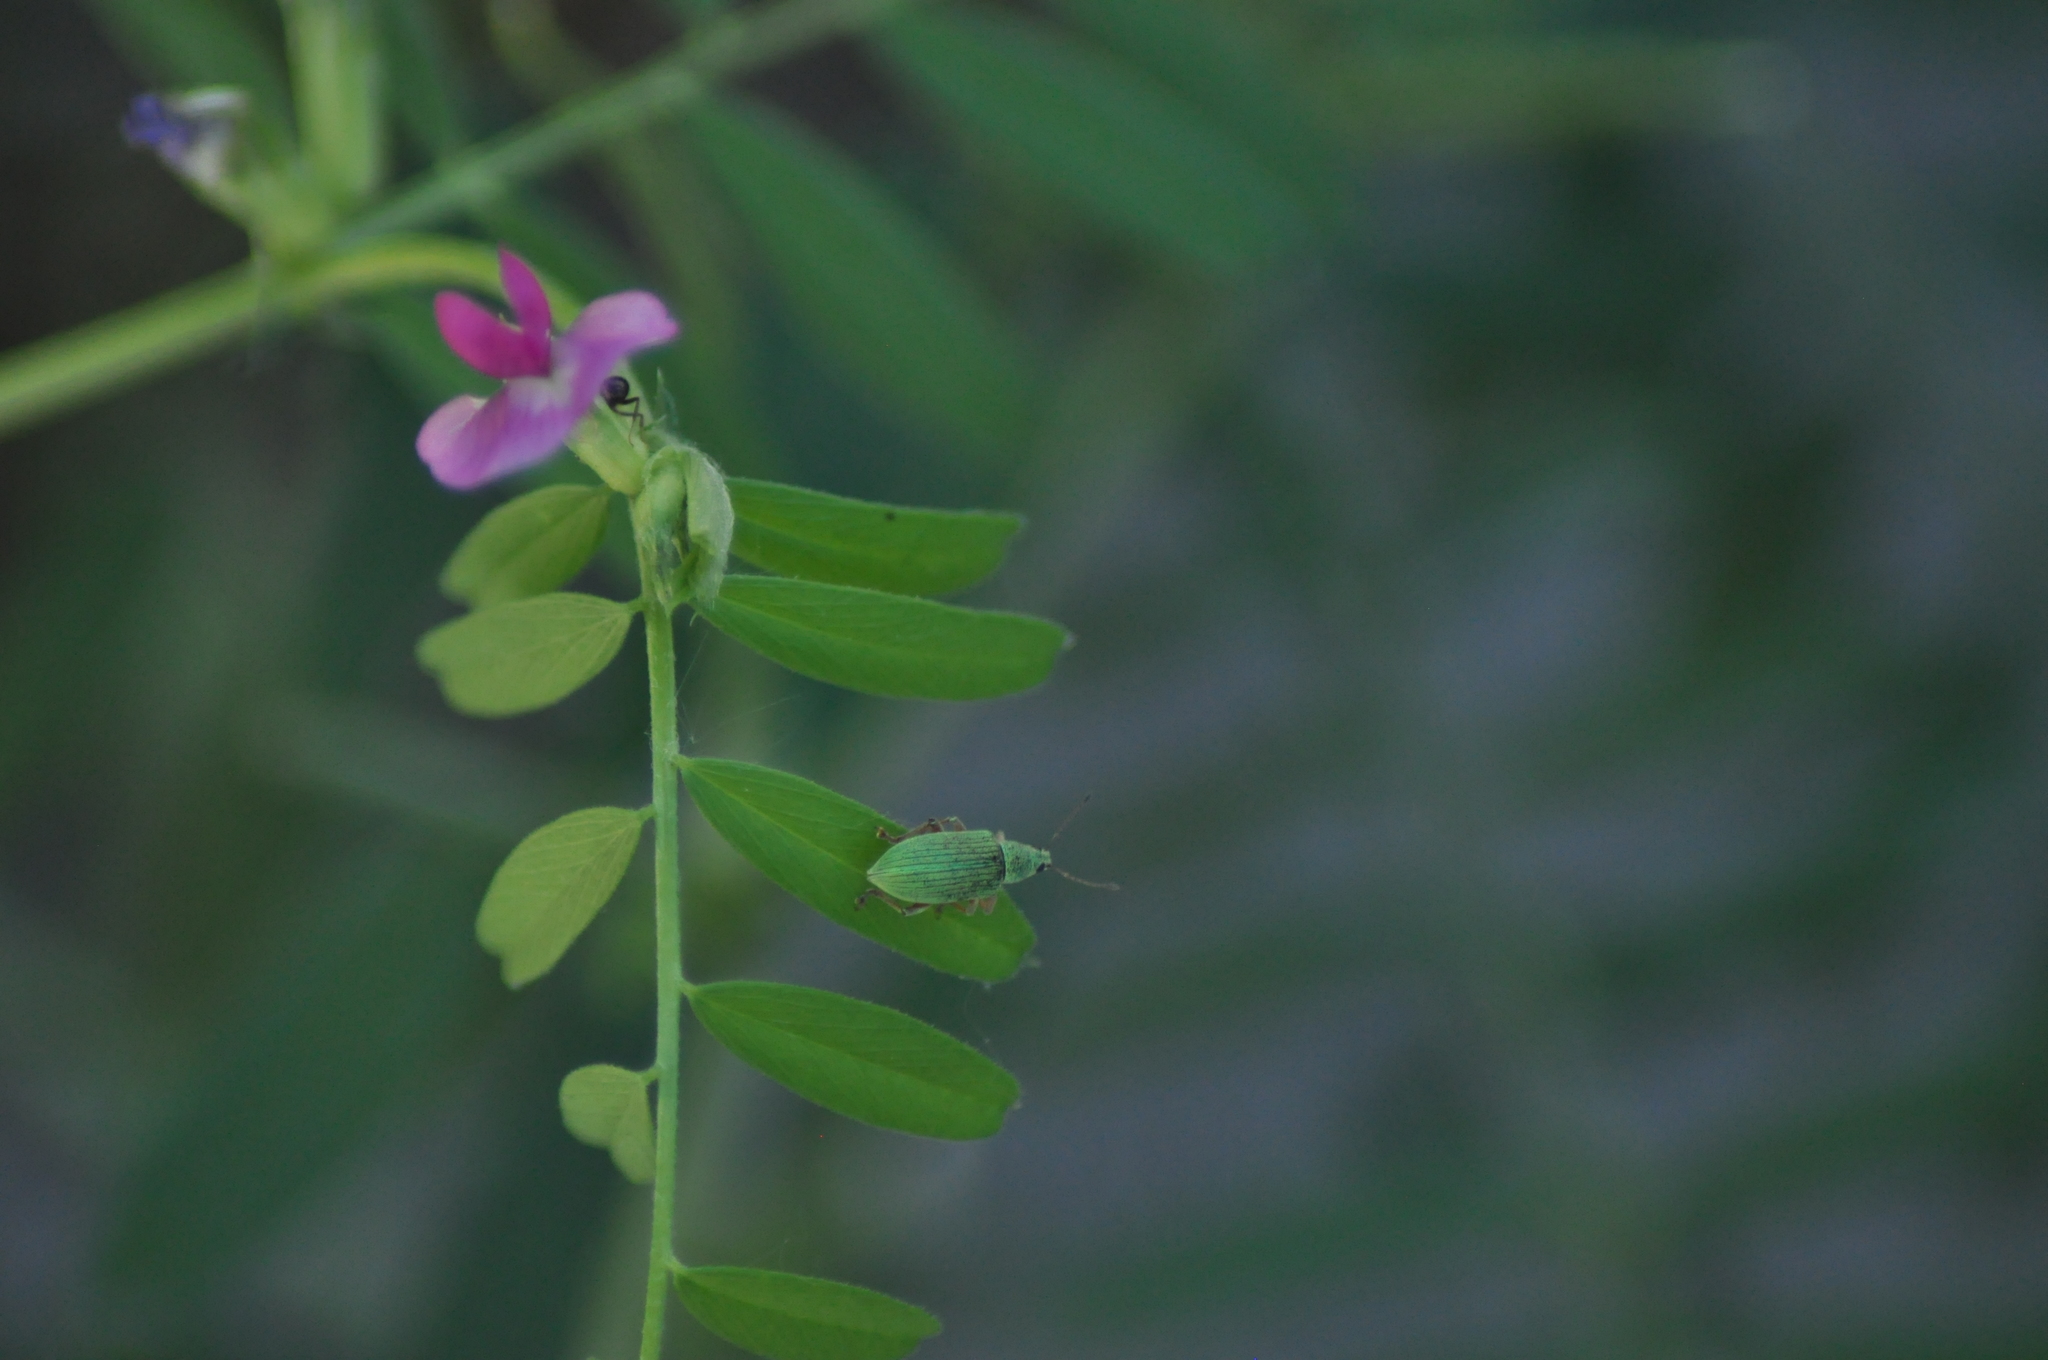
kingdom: Animalia
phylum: Arthropoda
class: Insecta
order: Coleoptera
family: Curculionidae
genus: Polydrusus
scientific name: Polydrusus formosus
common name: Weevil
